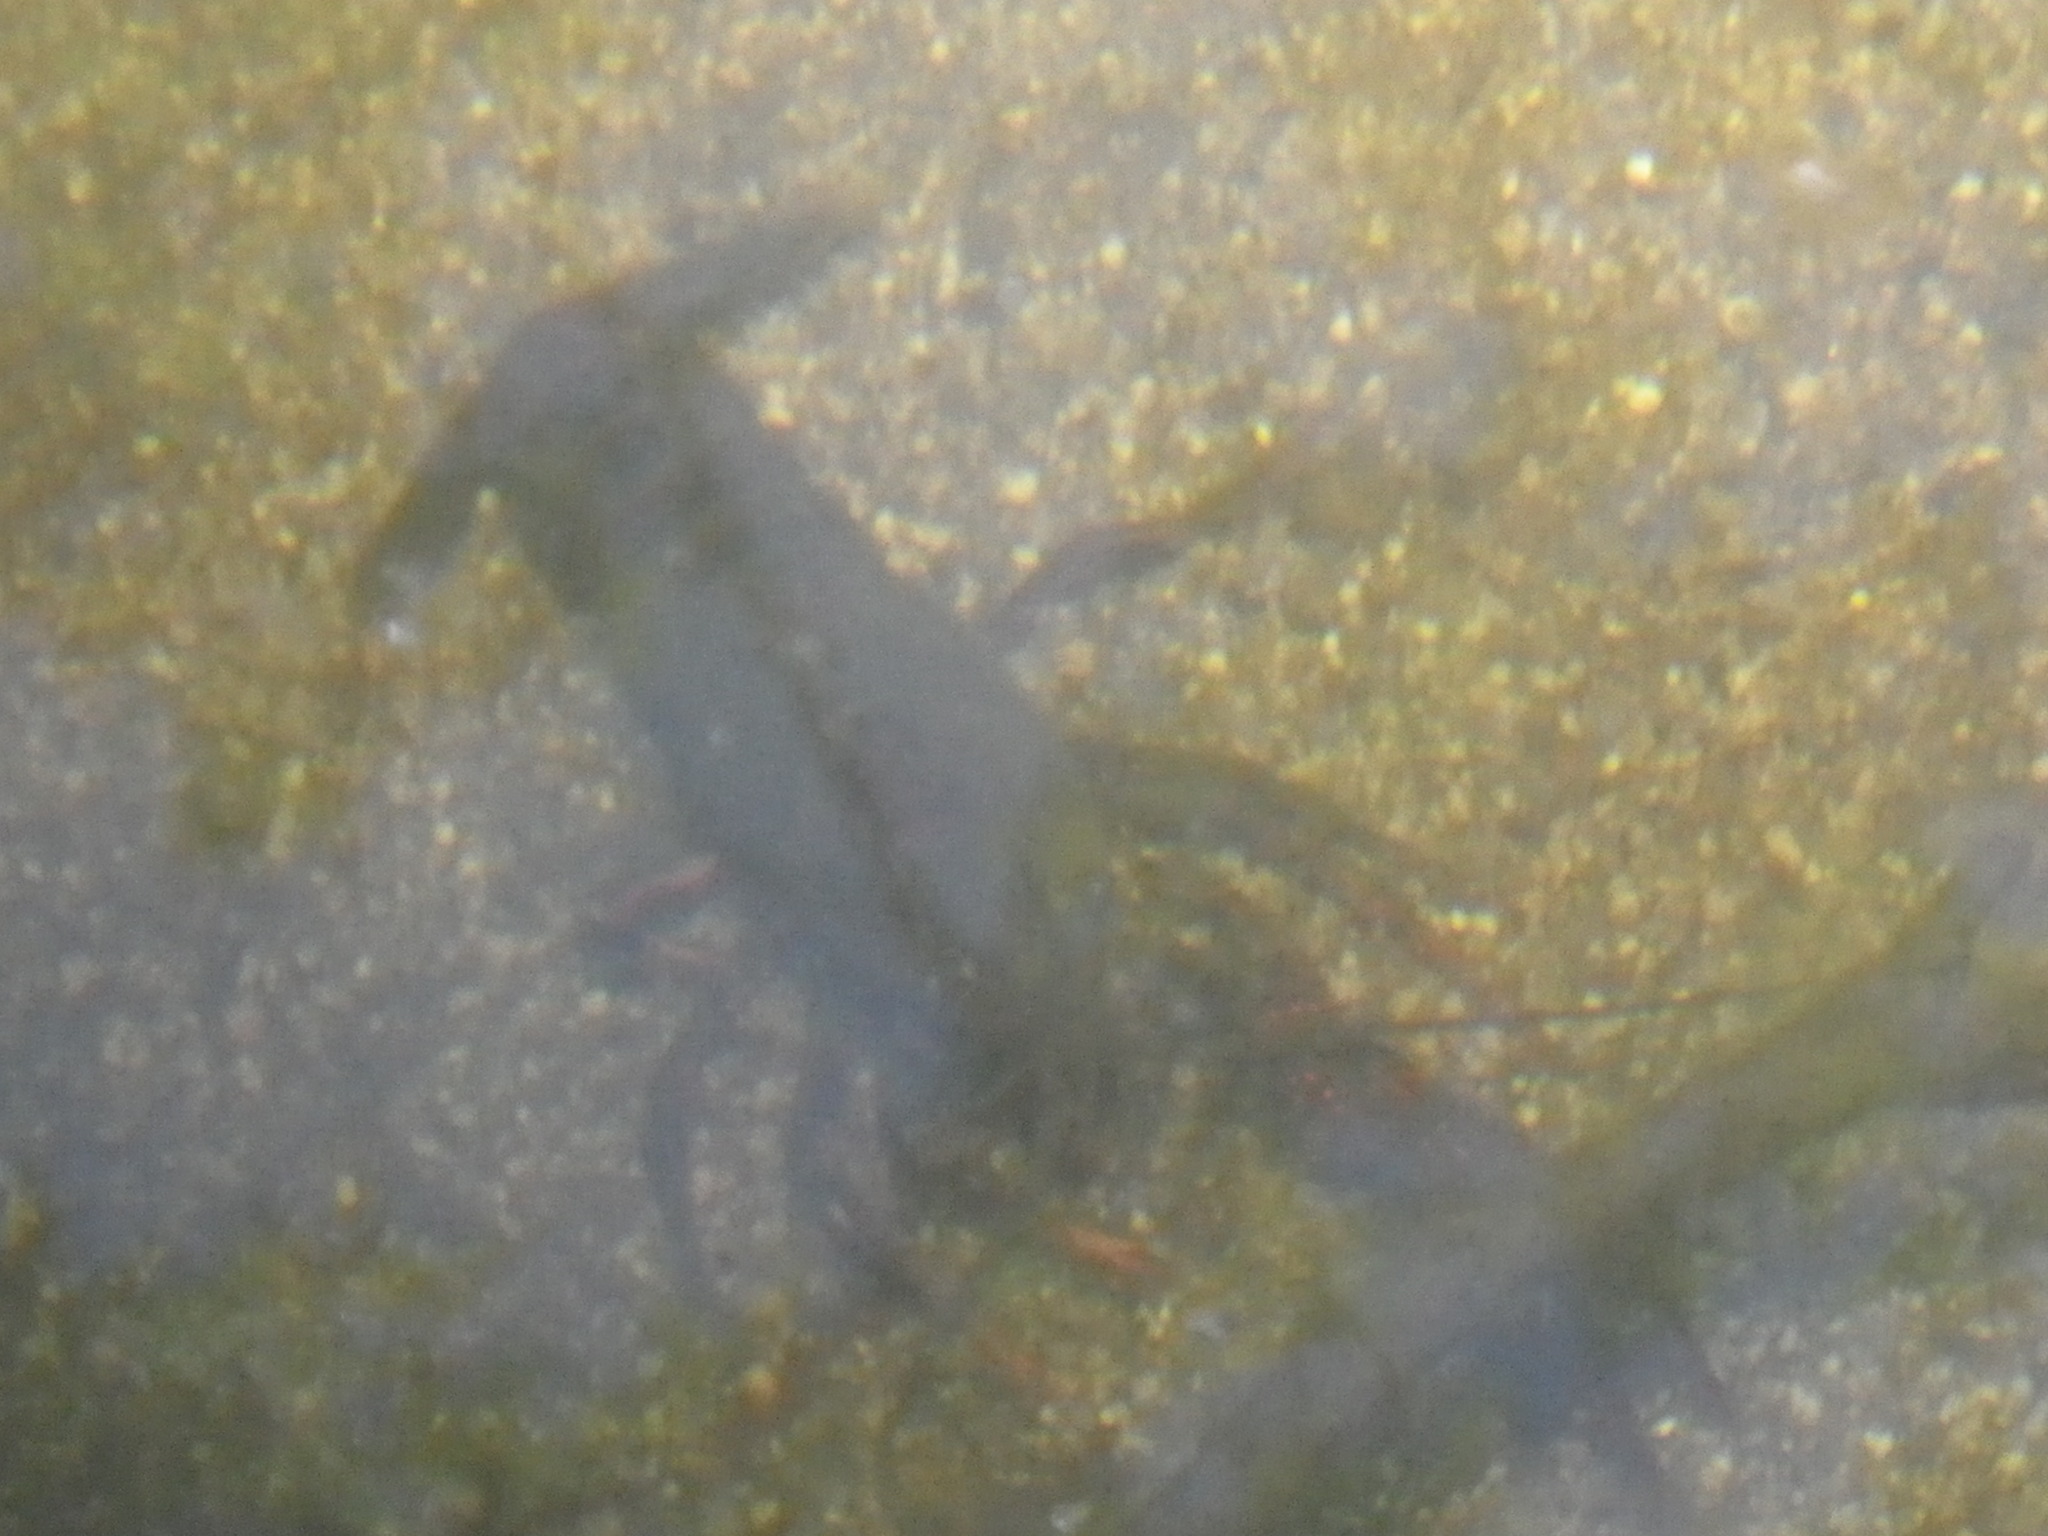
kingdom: Animalia
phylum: Arthropoda
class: Malacostraca
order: Decapoda
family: Cambaridae
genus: Procambarus
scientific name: Procambarus clarkii
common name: Red swamp crayfish
